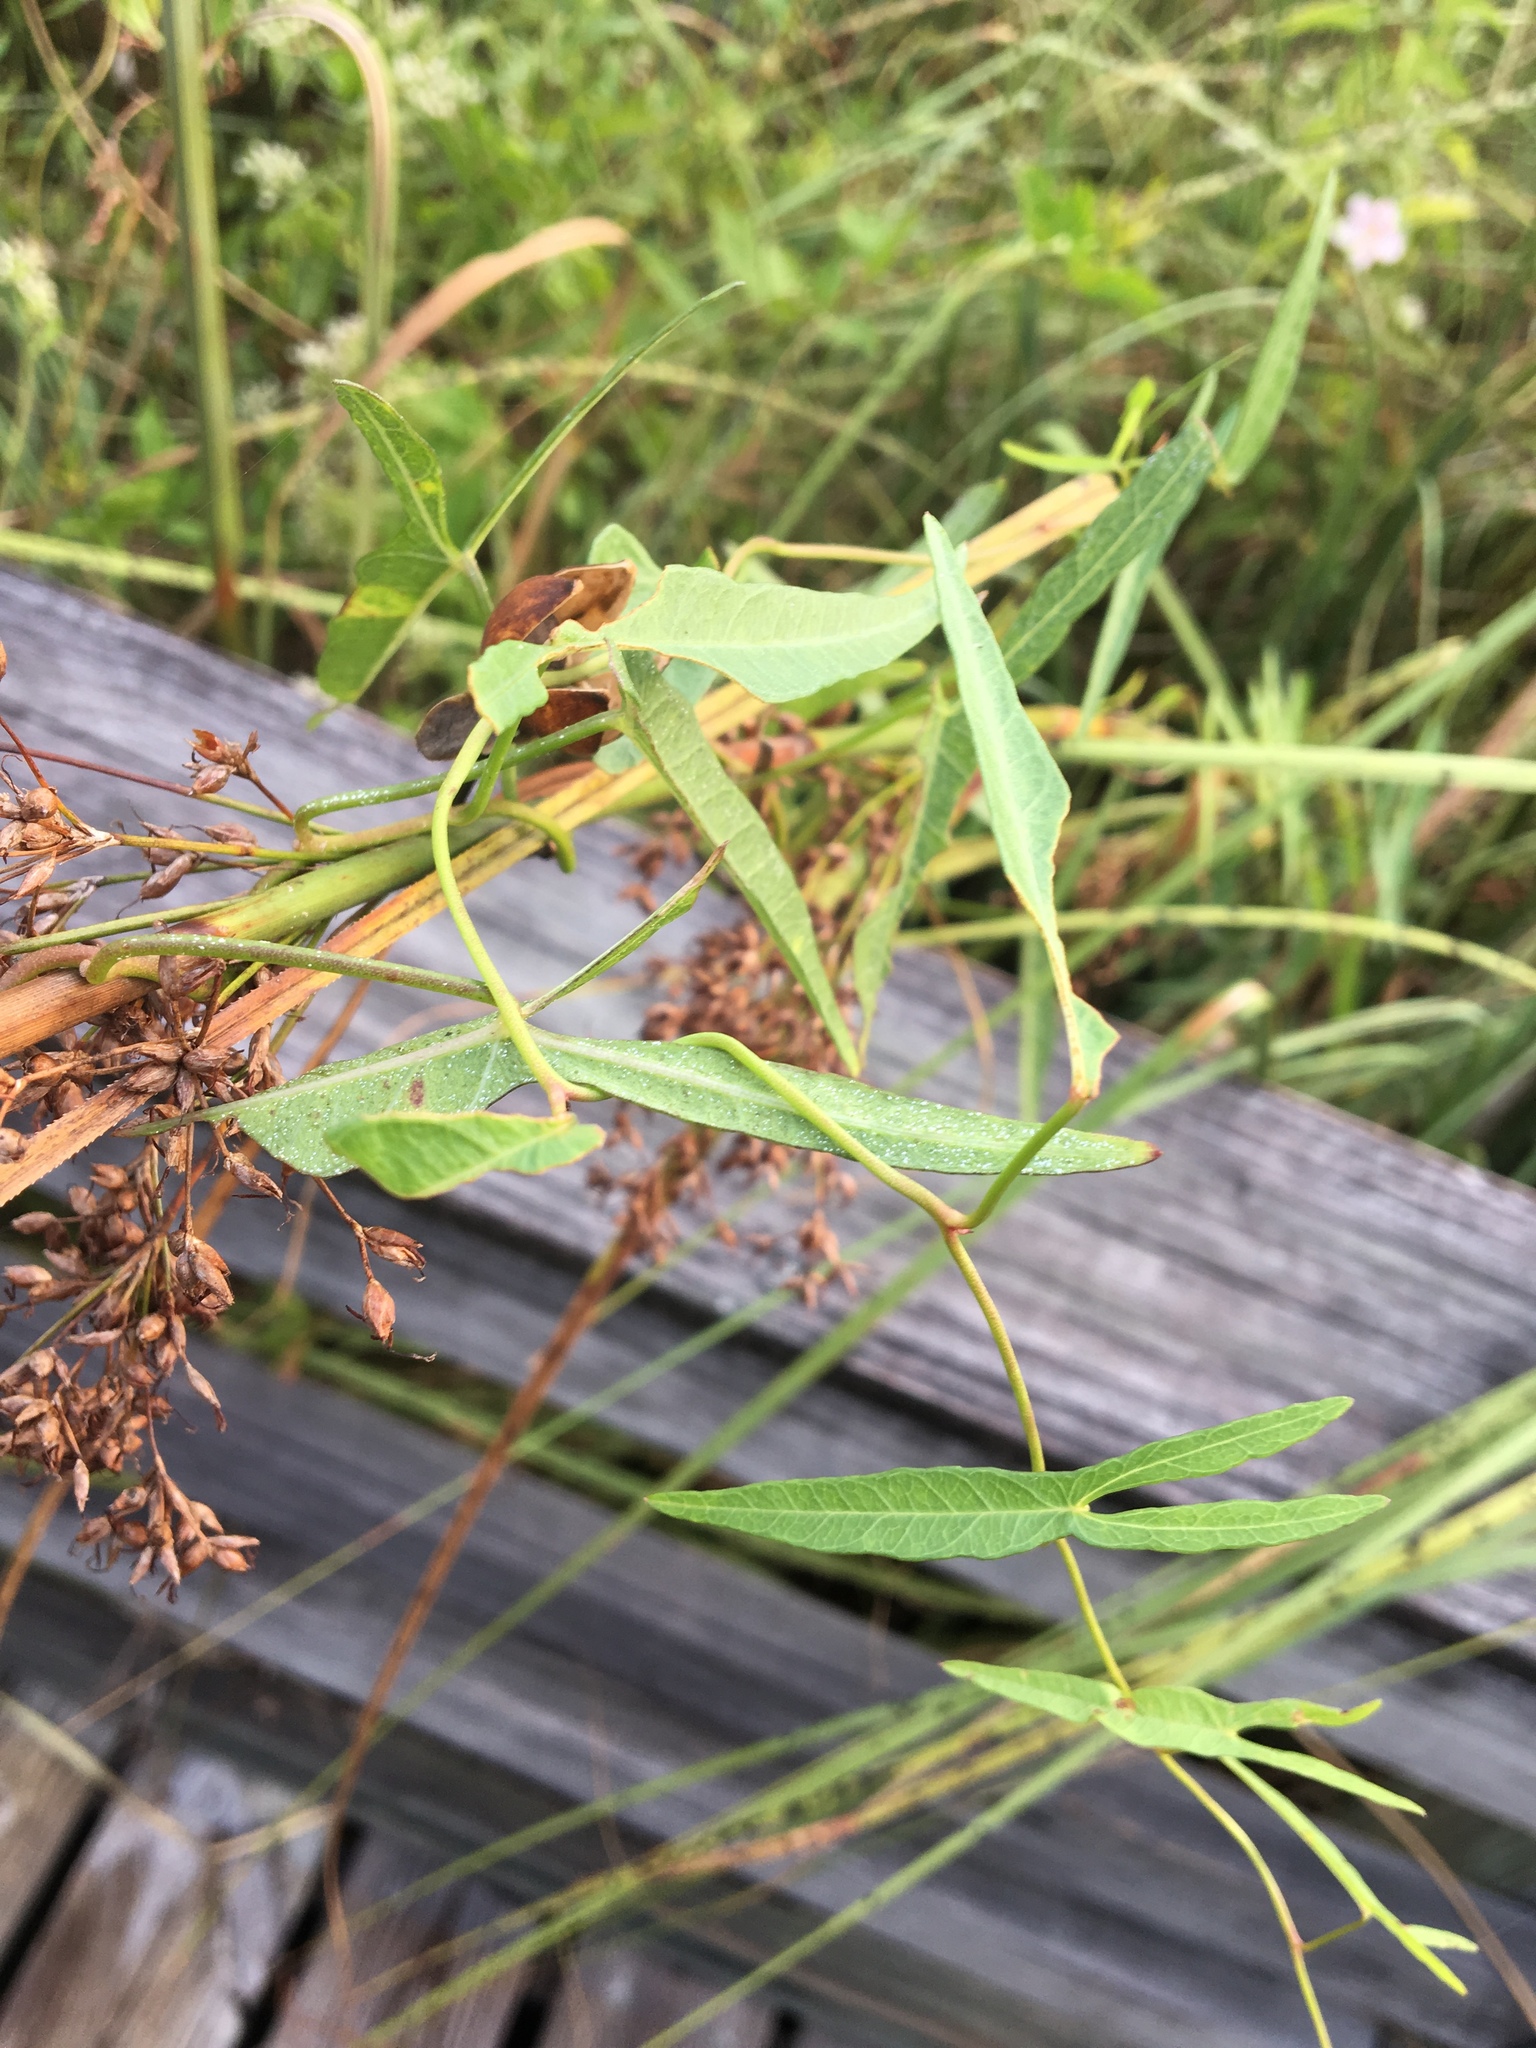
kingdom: Plantae
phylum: Tracheophyta
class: Magnoliopsida
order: Solanales
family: Convolvulaceae
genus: Ipomoea
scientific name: Ipomoea sagittata
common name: Saltmarsh morning glory
